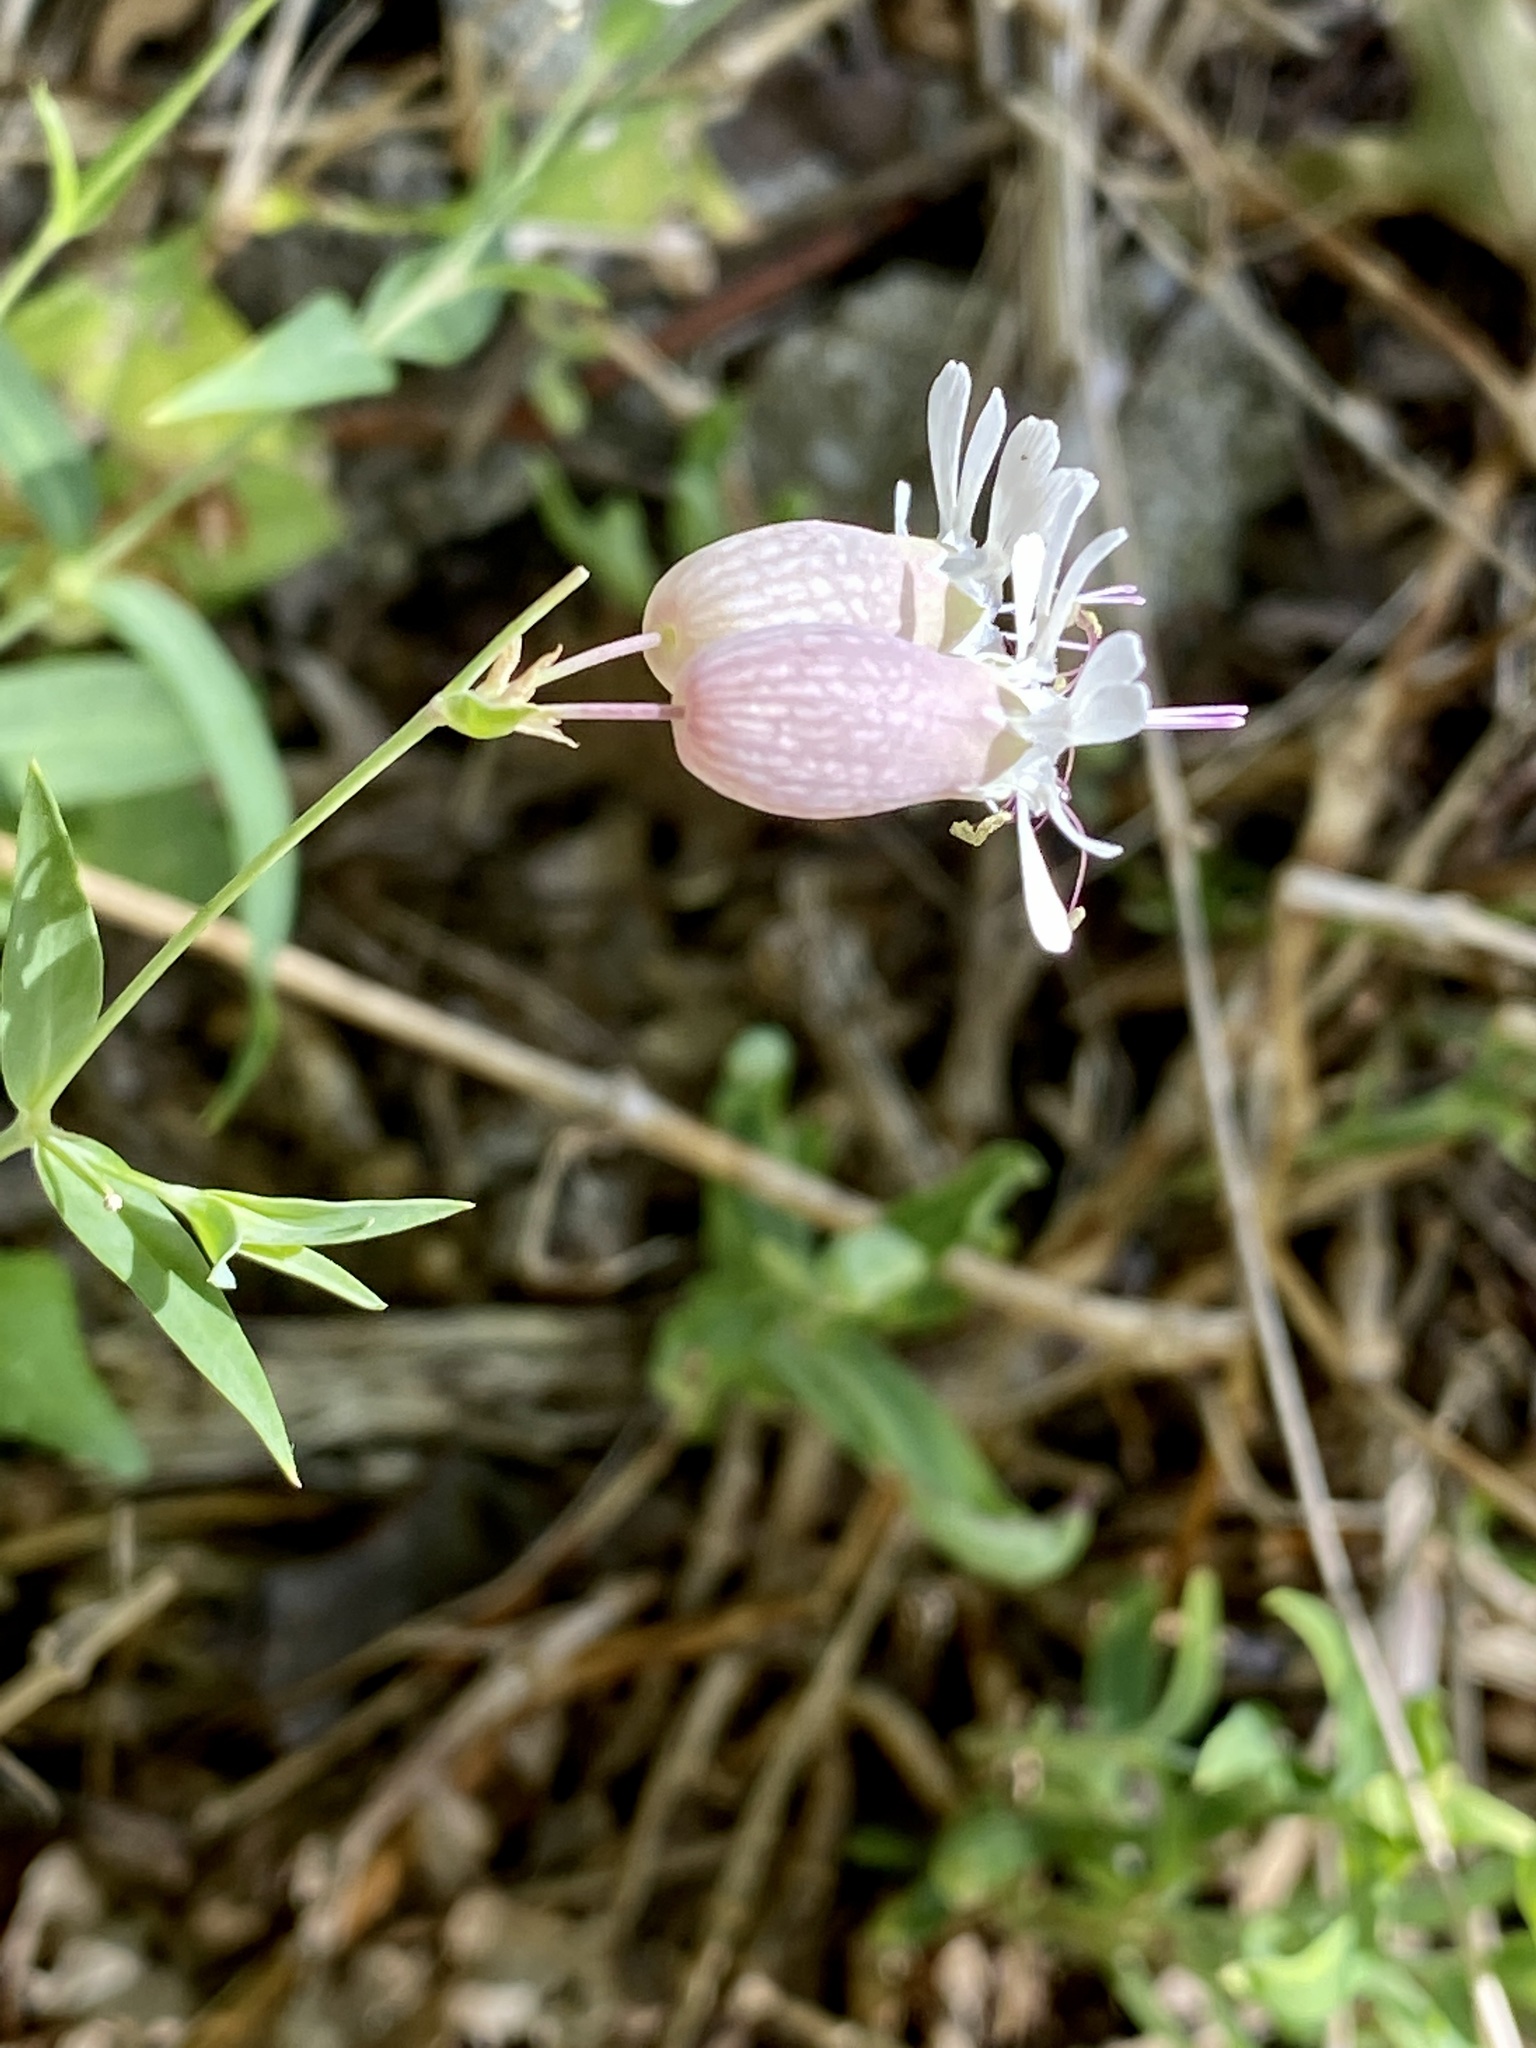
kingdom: Plantae
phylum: Tracheophyta
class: Magnoliopsida
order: Caryophyllales
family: Caryophyllaceae
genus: Silene
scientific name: Silene vulgaris
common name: Bladder campion
